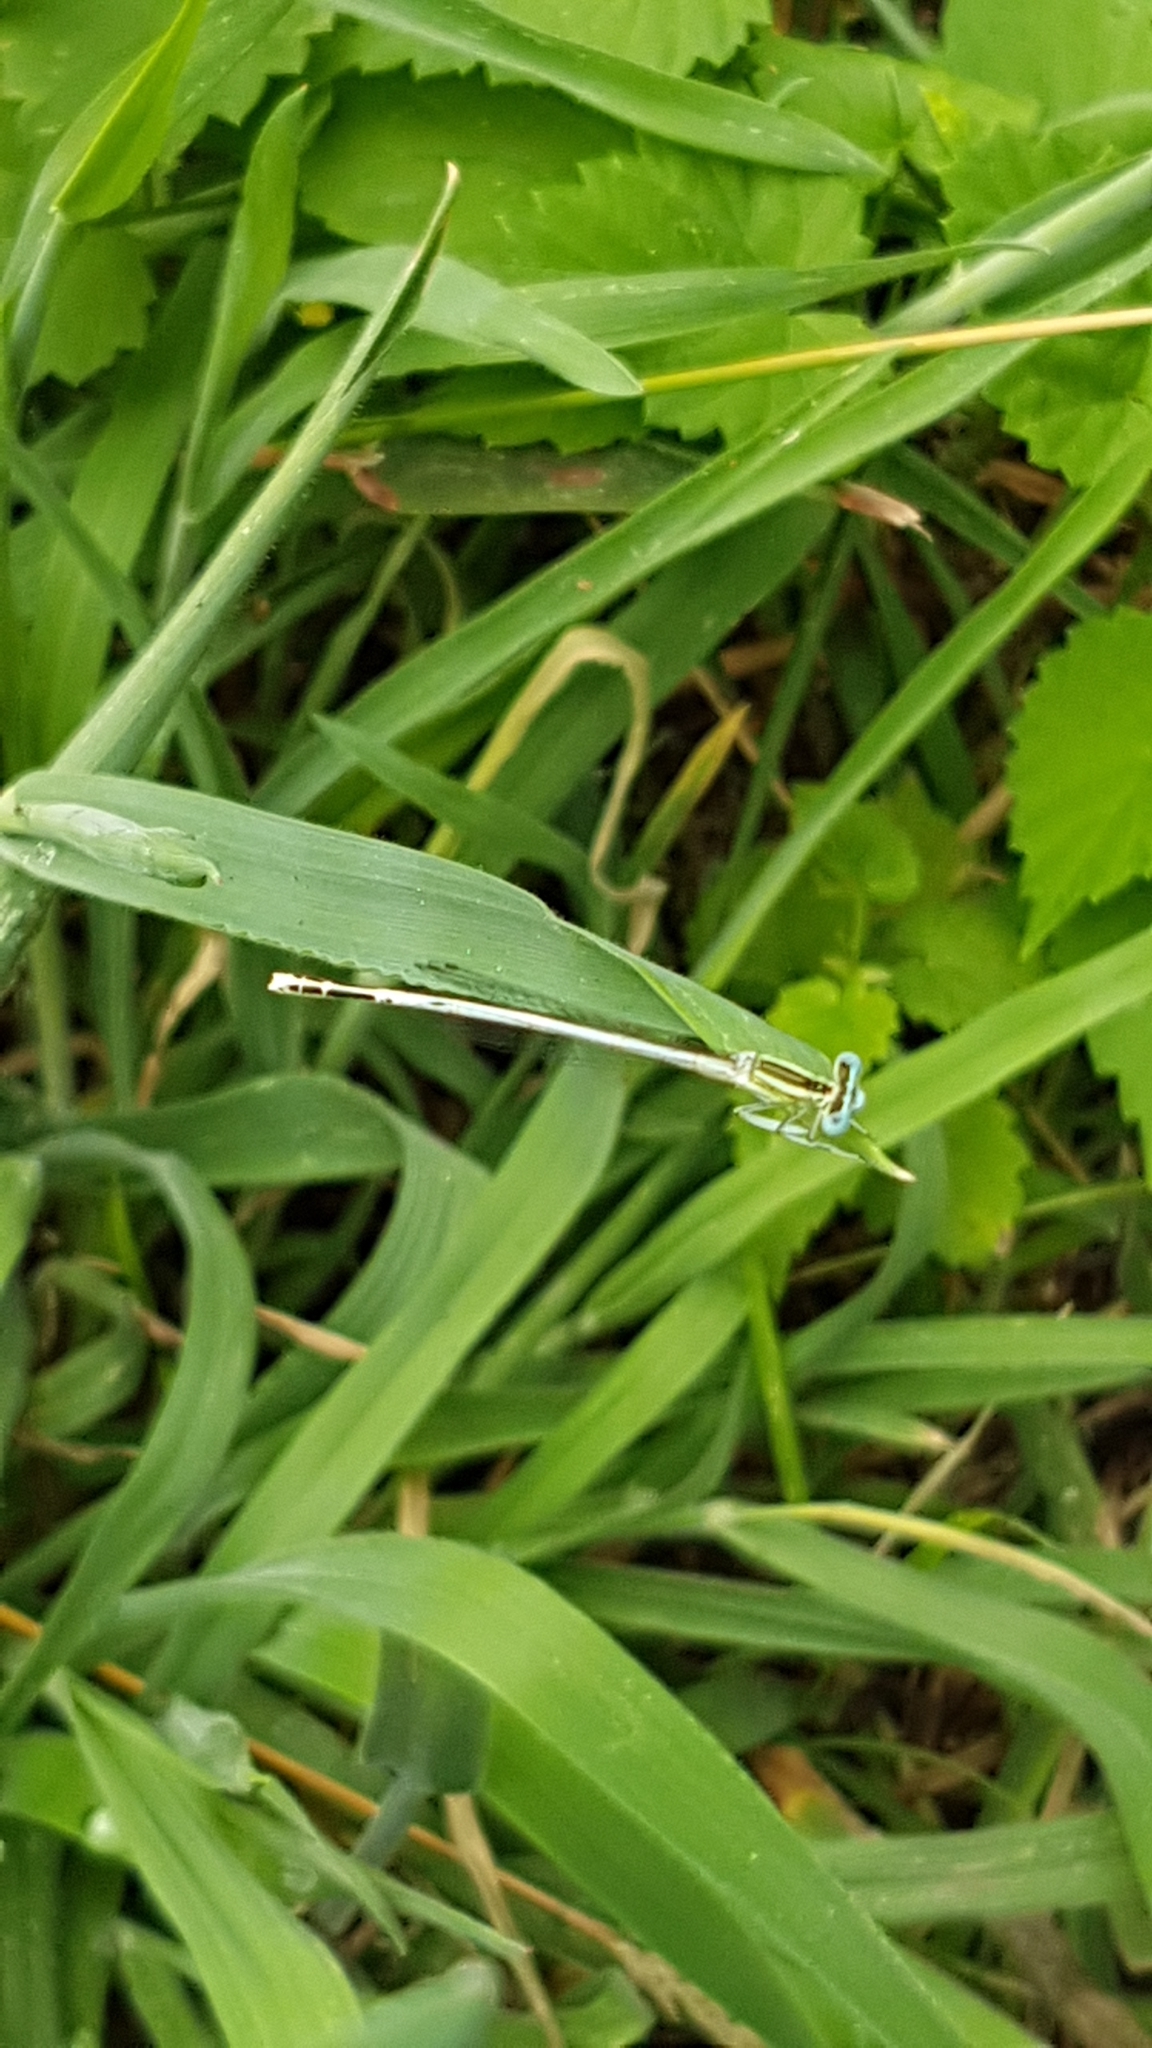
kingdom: Animalia
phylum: Arthropoda
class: Insecta
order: Odonata
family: Platycnemididae
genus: Platycnemis
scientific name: Platycnemis latipes
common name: White featherleg
